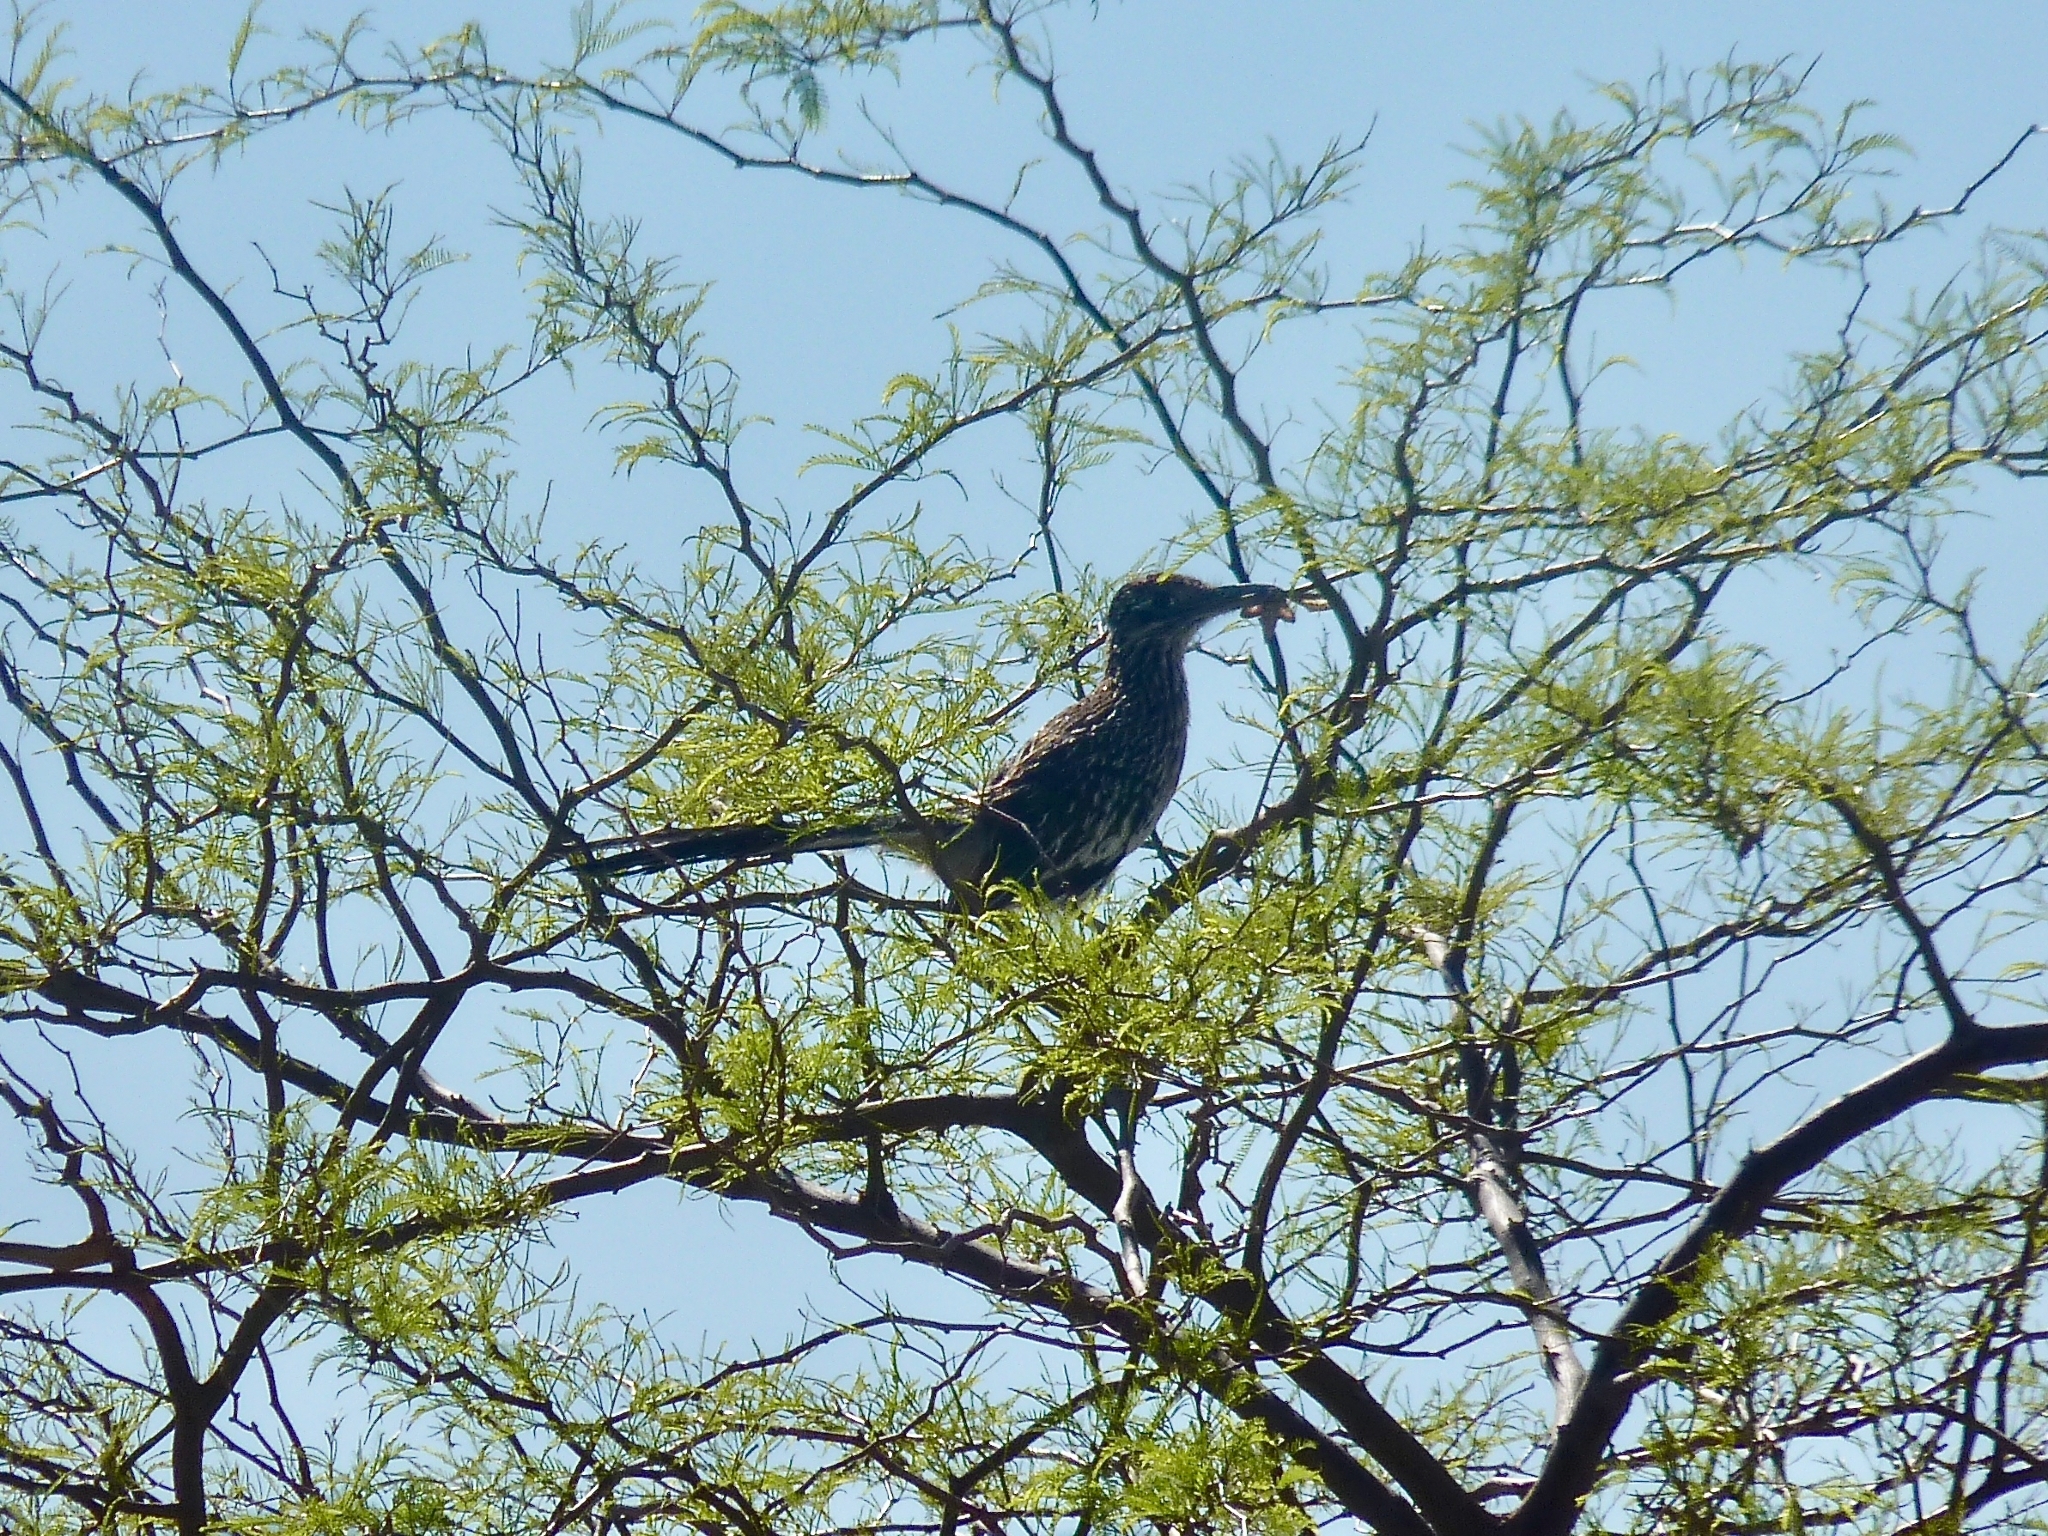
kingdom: Animalia
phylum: Chordata
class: Aves
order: Cuculiformes
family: Cuculidae
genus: Geococcyx
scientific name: Geococcyx californianus
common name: Greater roadrunner
